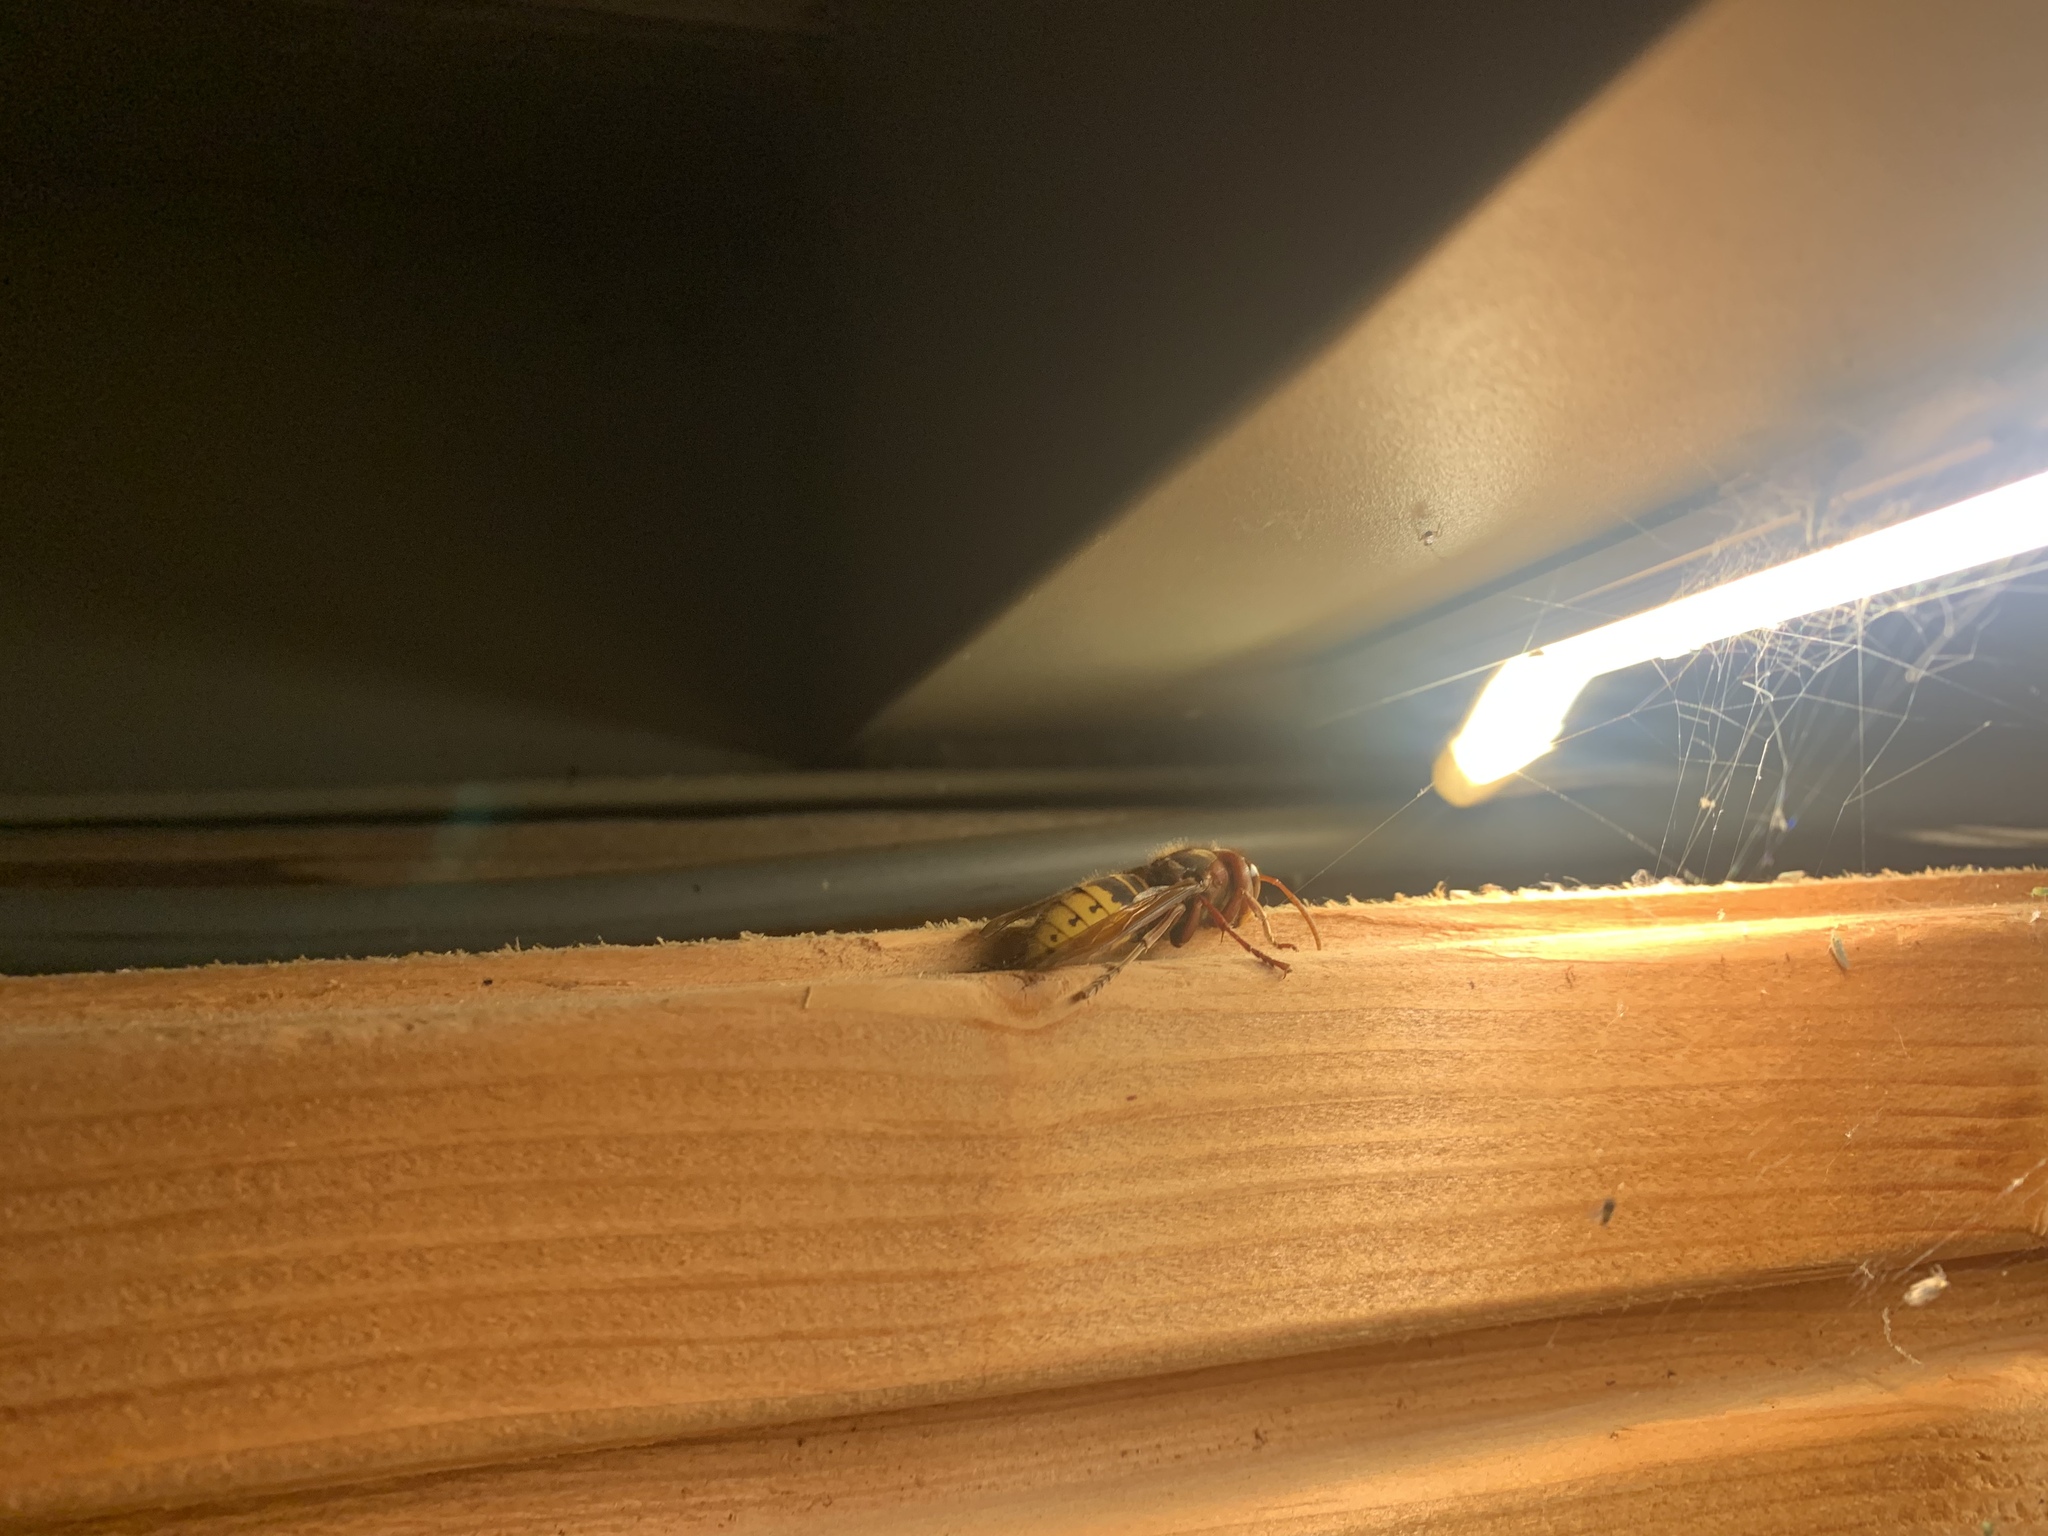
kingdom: Animalia
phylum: Arthropoda
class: Insecta
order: Hymenoptera
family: Vespidae
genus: Vespa
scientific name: Vespa crabro
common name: Hornet
